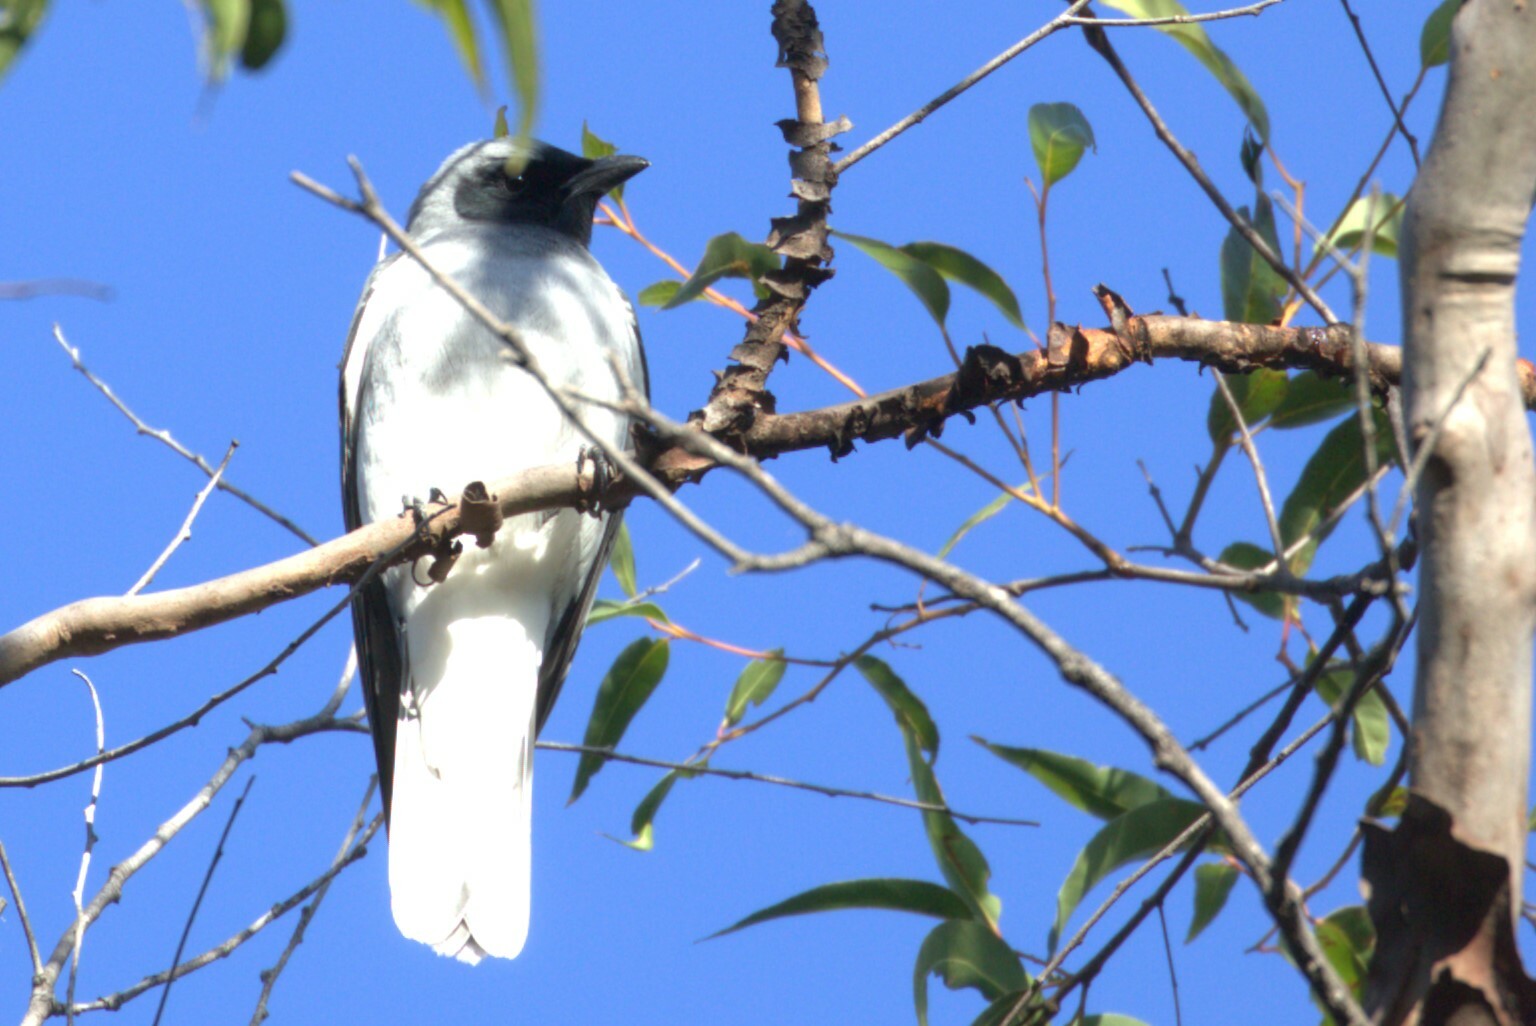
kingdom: Animalia
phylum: Chordata
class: Aves
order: Passeriformes
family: Campephagidae
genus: Coracina
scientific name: Coracina novaehollandiae
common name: Black-faced cuckooshrike
